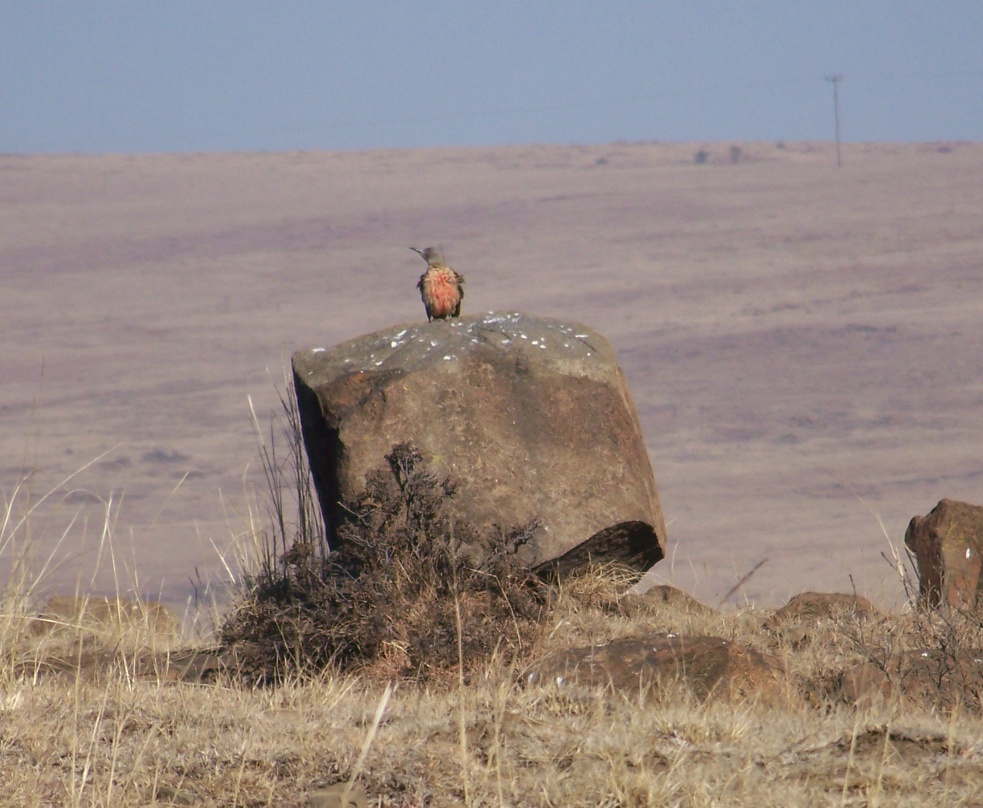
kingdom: Animalia
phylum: Chordata
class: Aves
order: Piciformes
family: Picidae
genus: Geocolaptes
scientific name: Geocolaptes olivaceus
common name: Ground woodpecker
